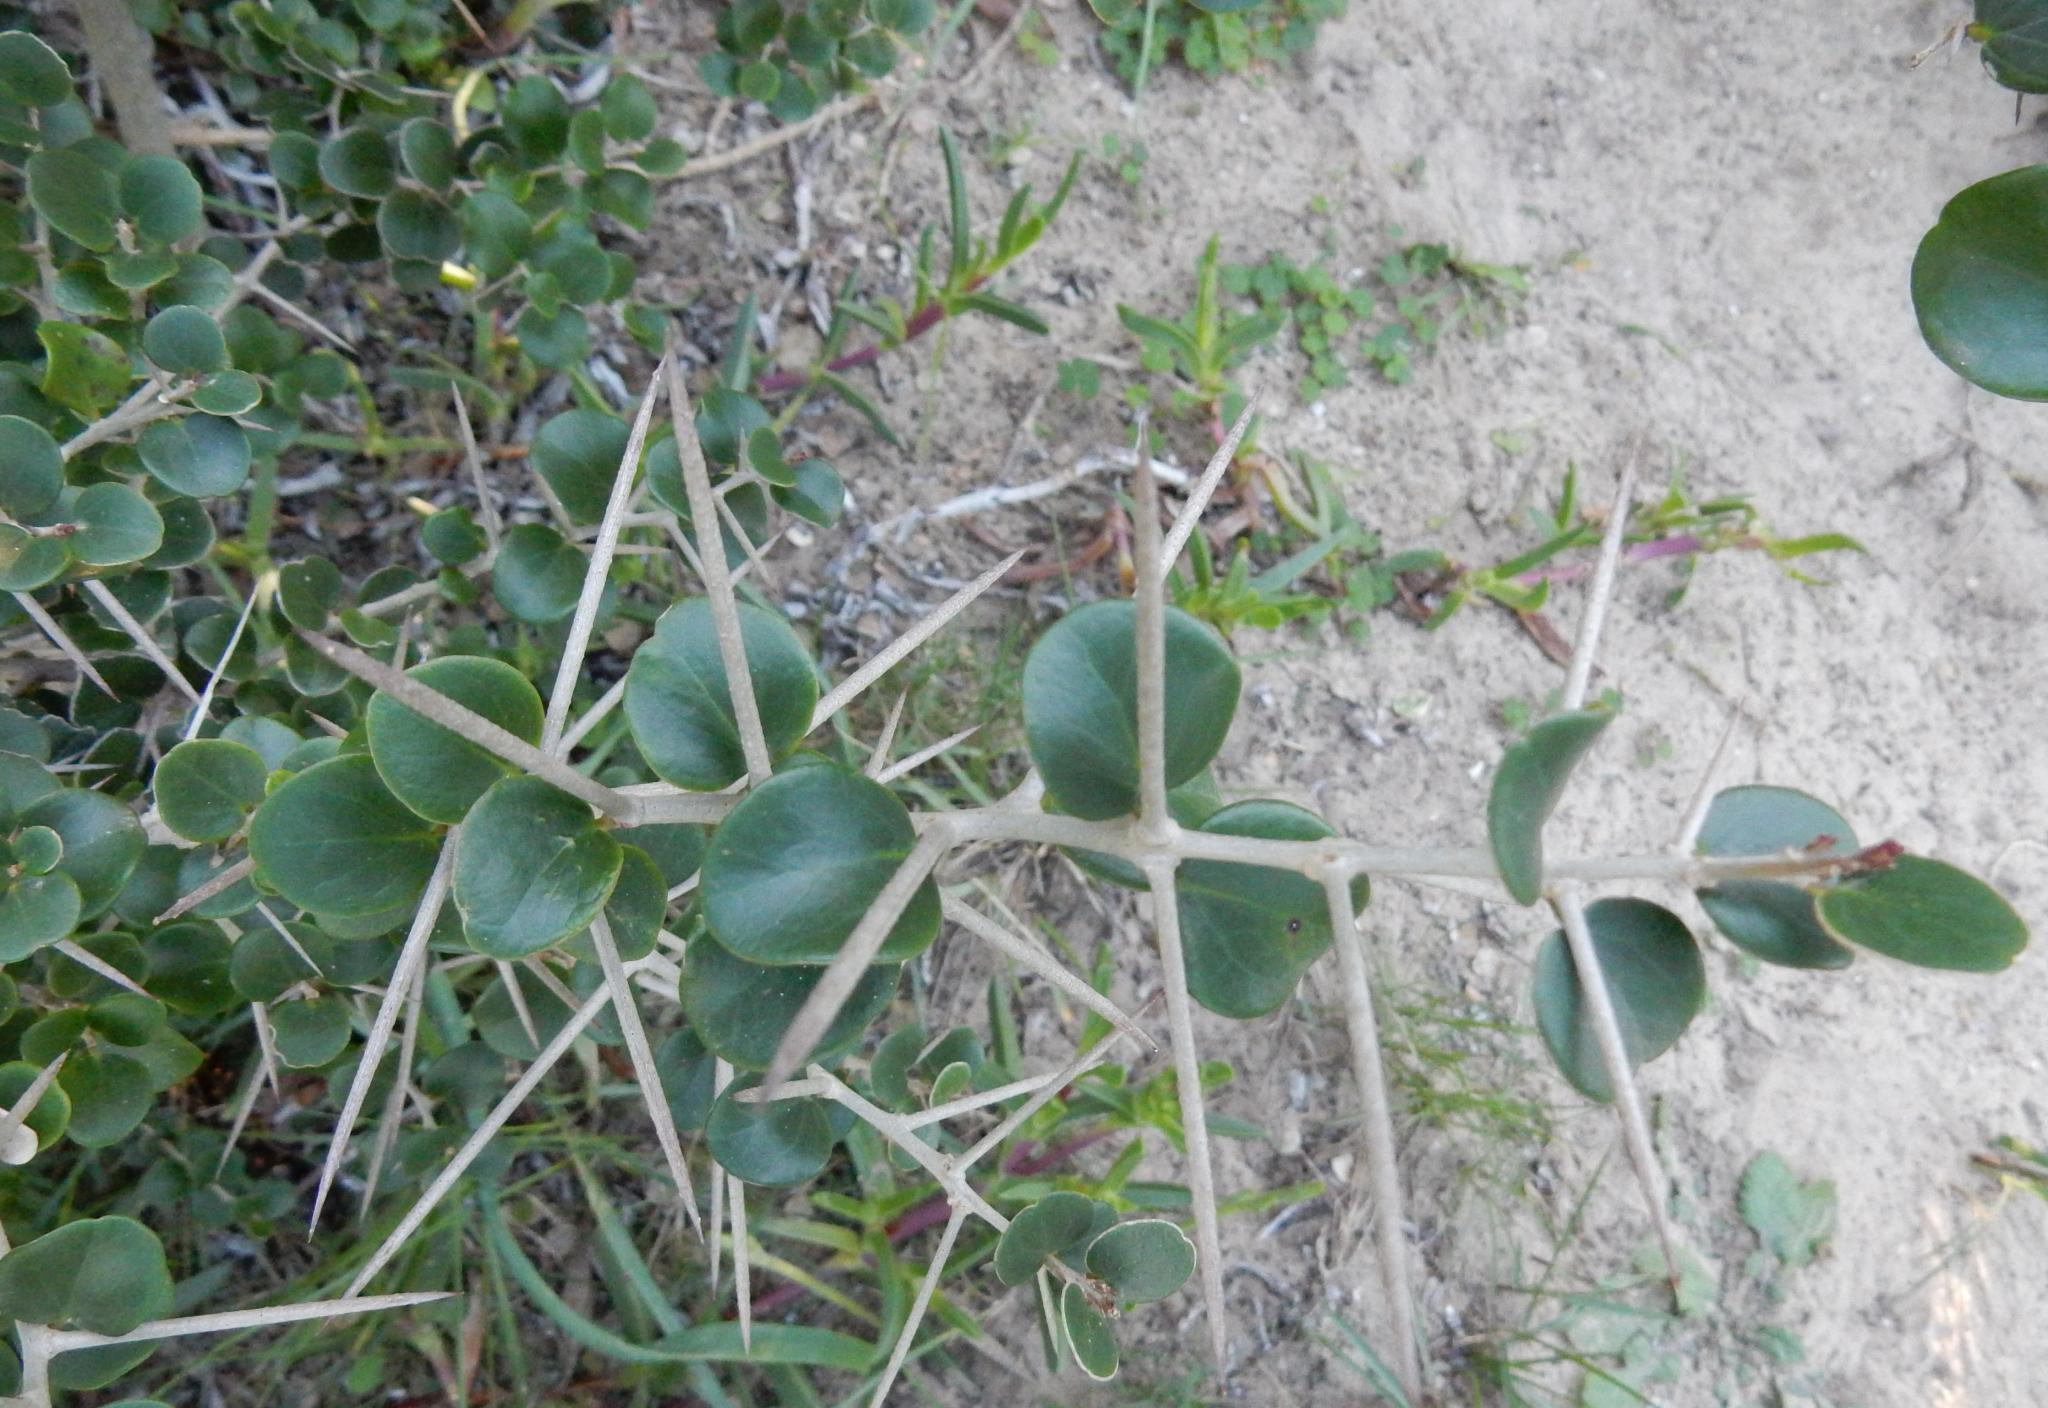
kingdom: Plantae
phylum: Tracheophyta
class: Magnoliopsida
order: Malpighiales
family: Salicaceae
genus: Dovyalis
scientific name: Dovyalis rotundifolia
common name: Dune sourberry
